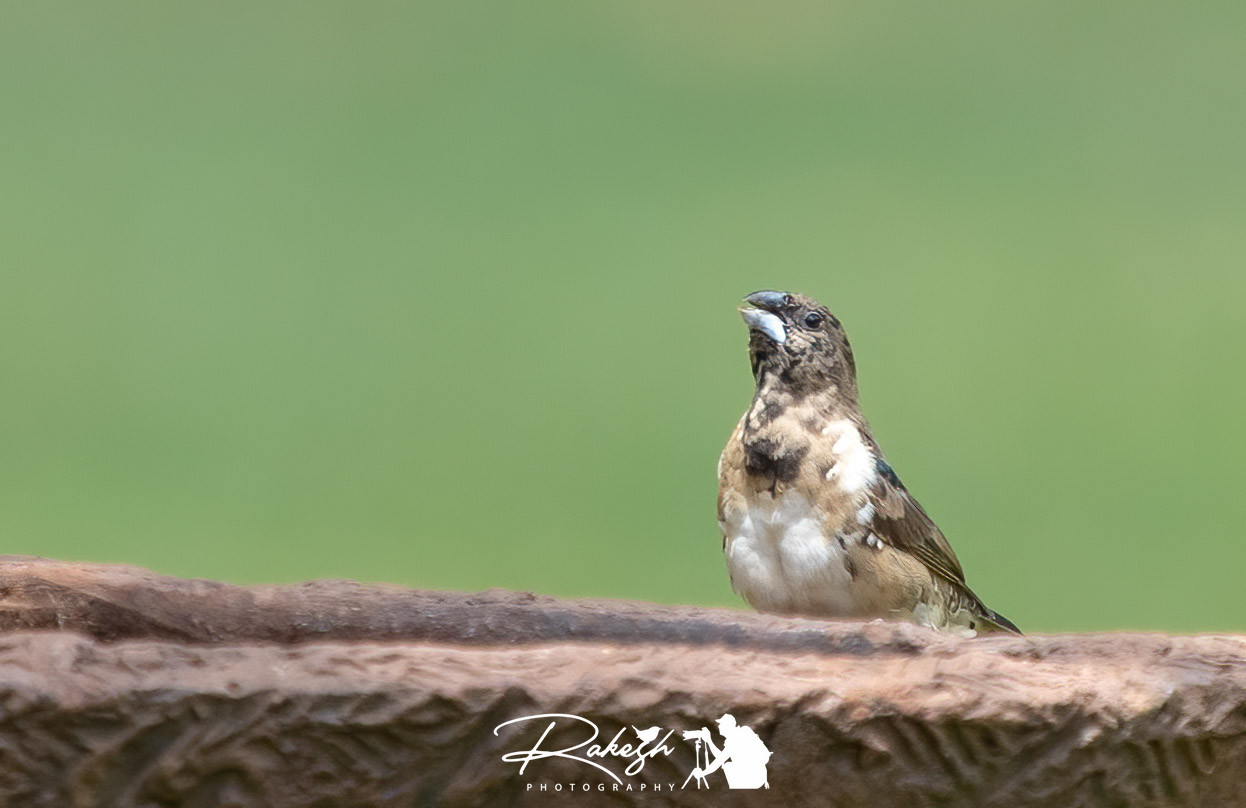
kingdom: Animalia
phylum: Chordata
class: Aves
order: Passeriformes
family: Estrildidae
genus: Lonchura
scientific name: Lonchura cucullata
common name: Bronze mannikin
